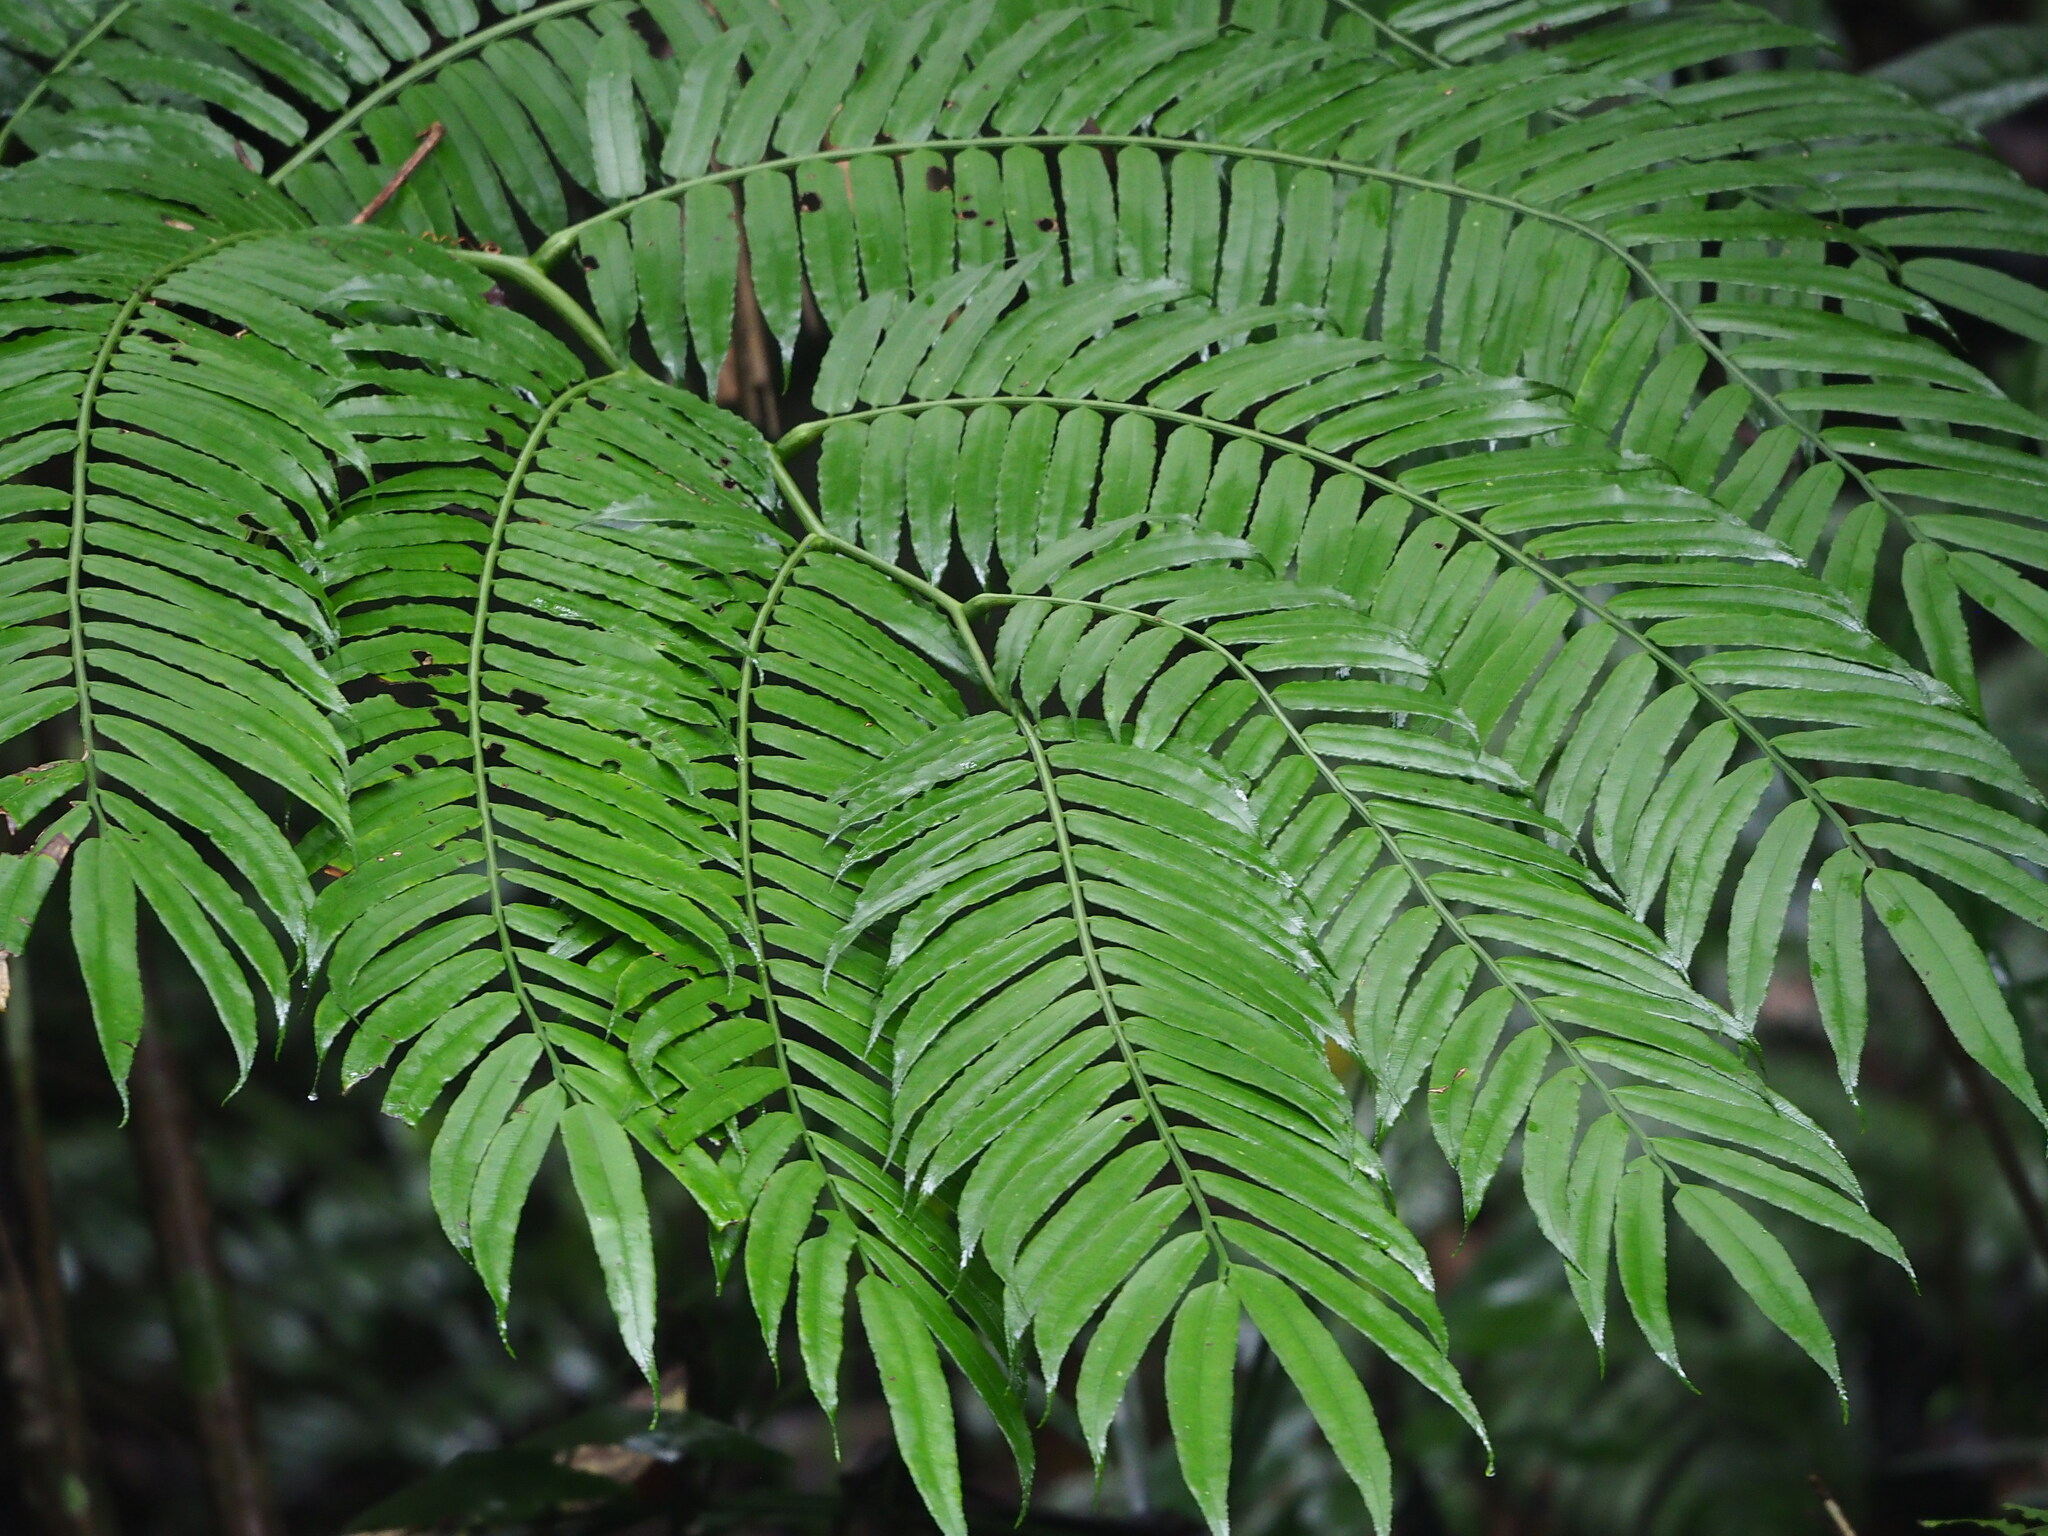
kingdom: Plantae
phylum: Tracheophyta
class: Polypodiopsida
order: Marattiales
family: Marattiaceae
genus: Angiopteris
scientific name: Angiopteris lygodiifolia
